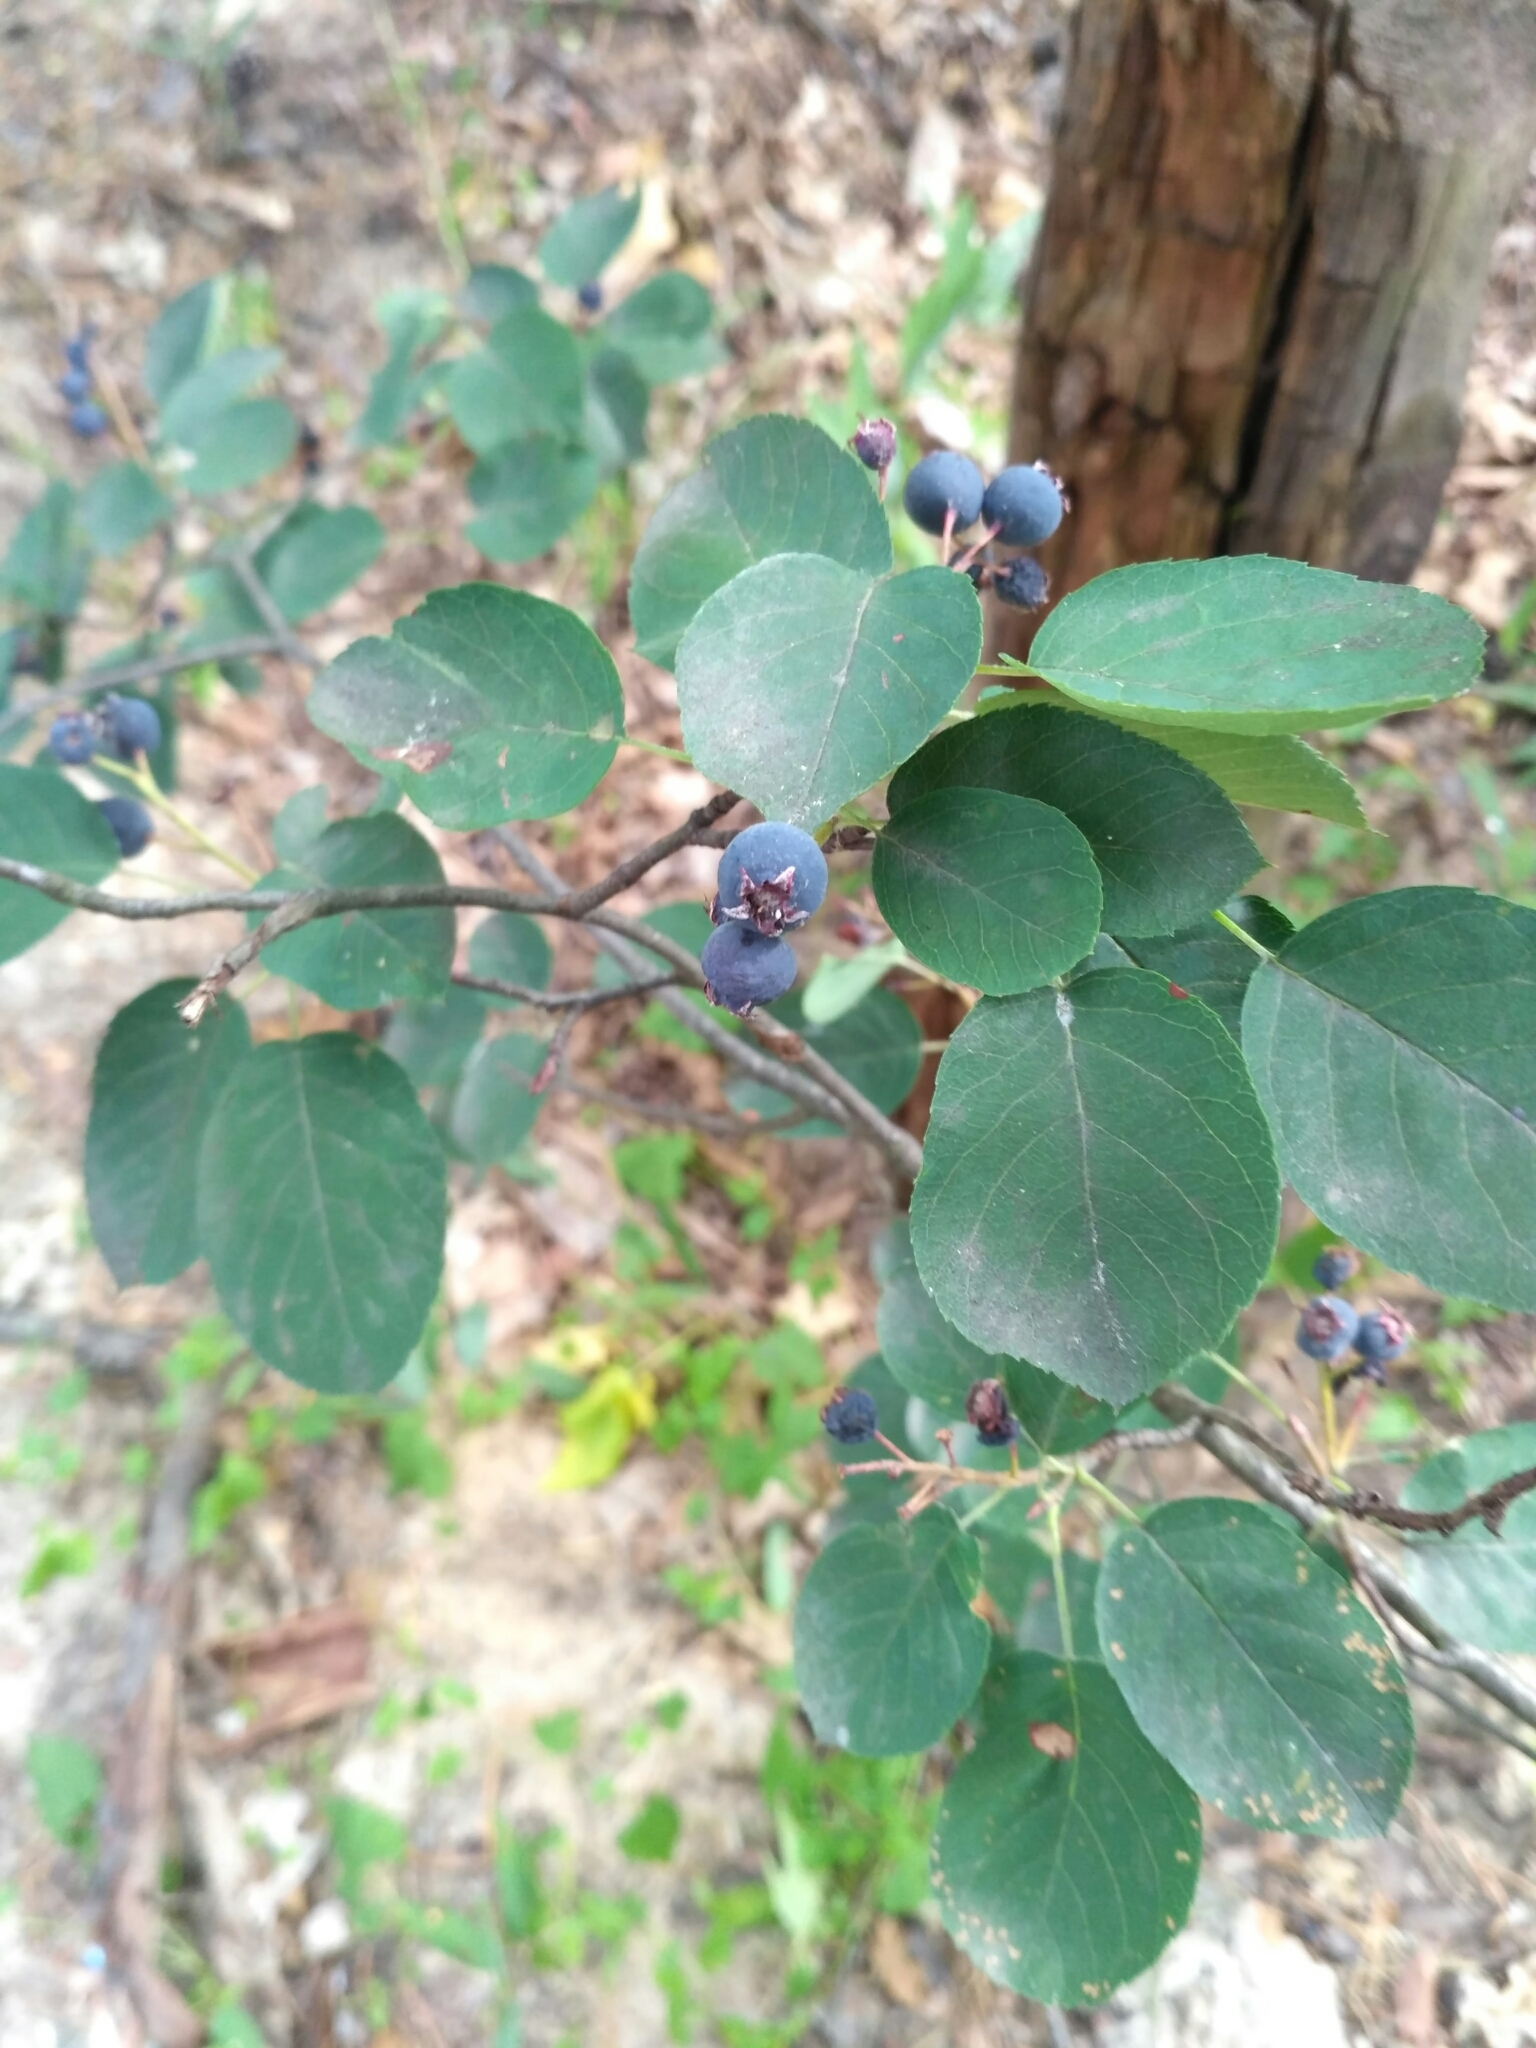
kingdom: Plantae
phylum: Tracheophyta
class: Magnoliopsida
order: Rosales
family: Rosaceae
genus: Amelanchier
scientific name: Amelanchier
